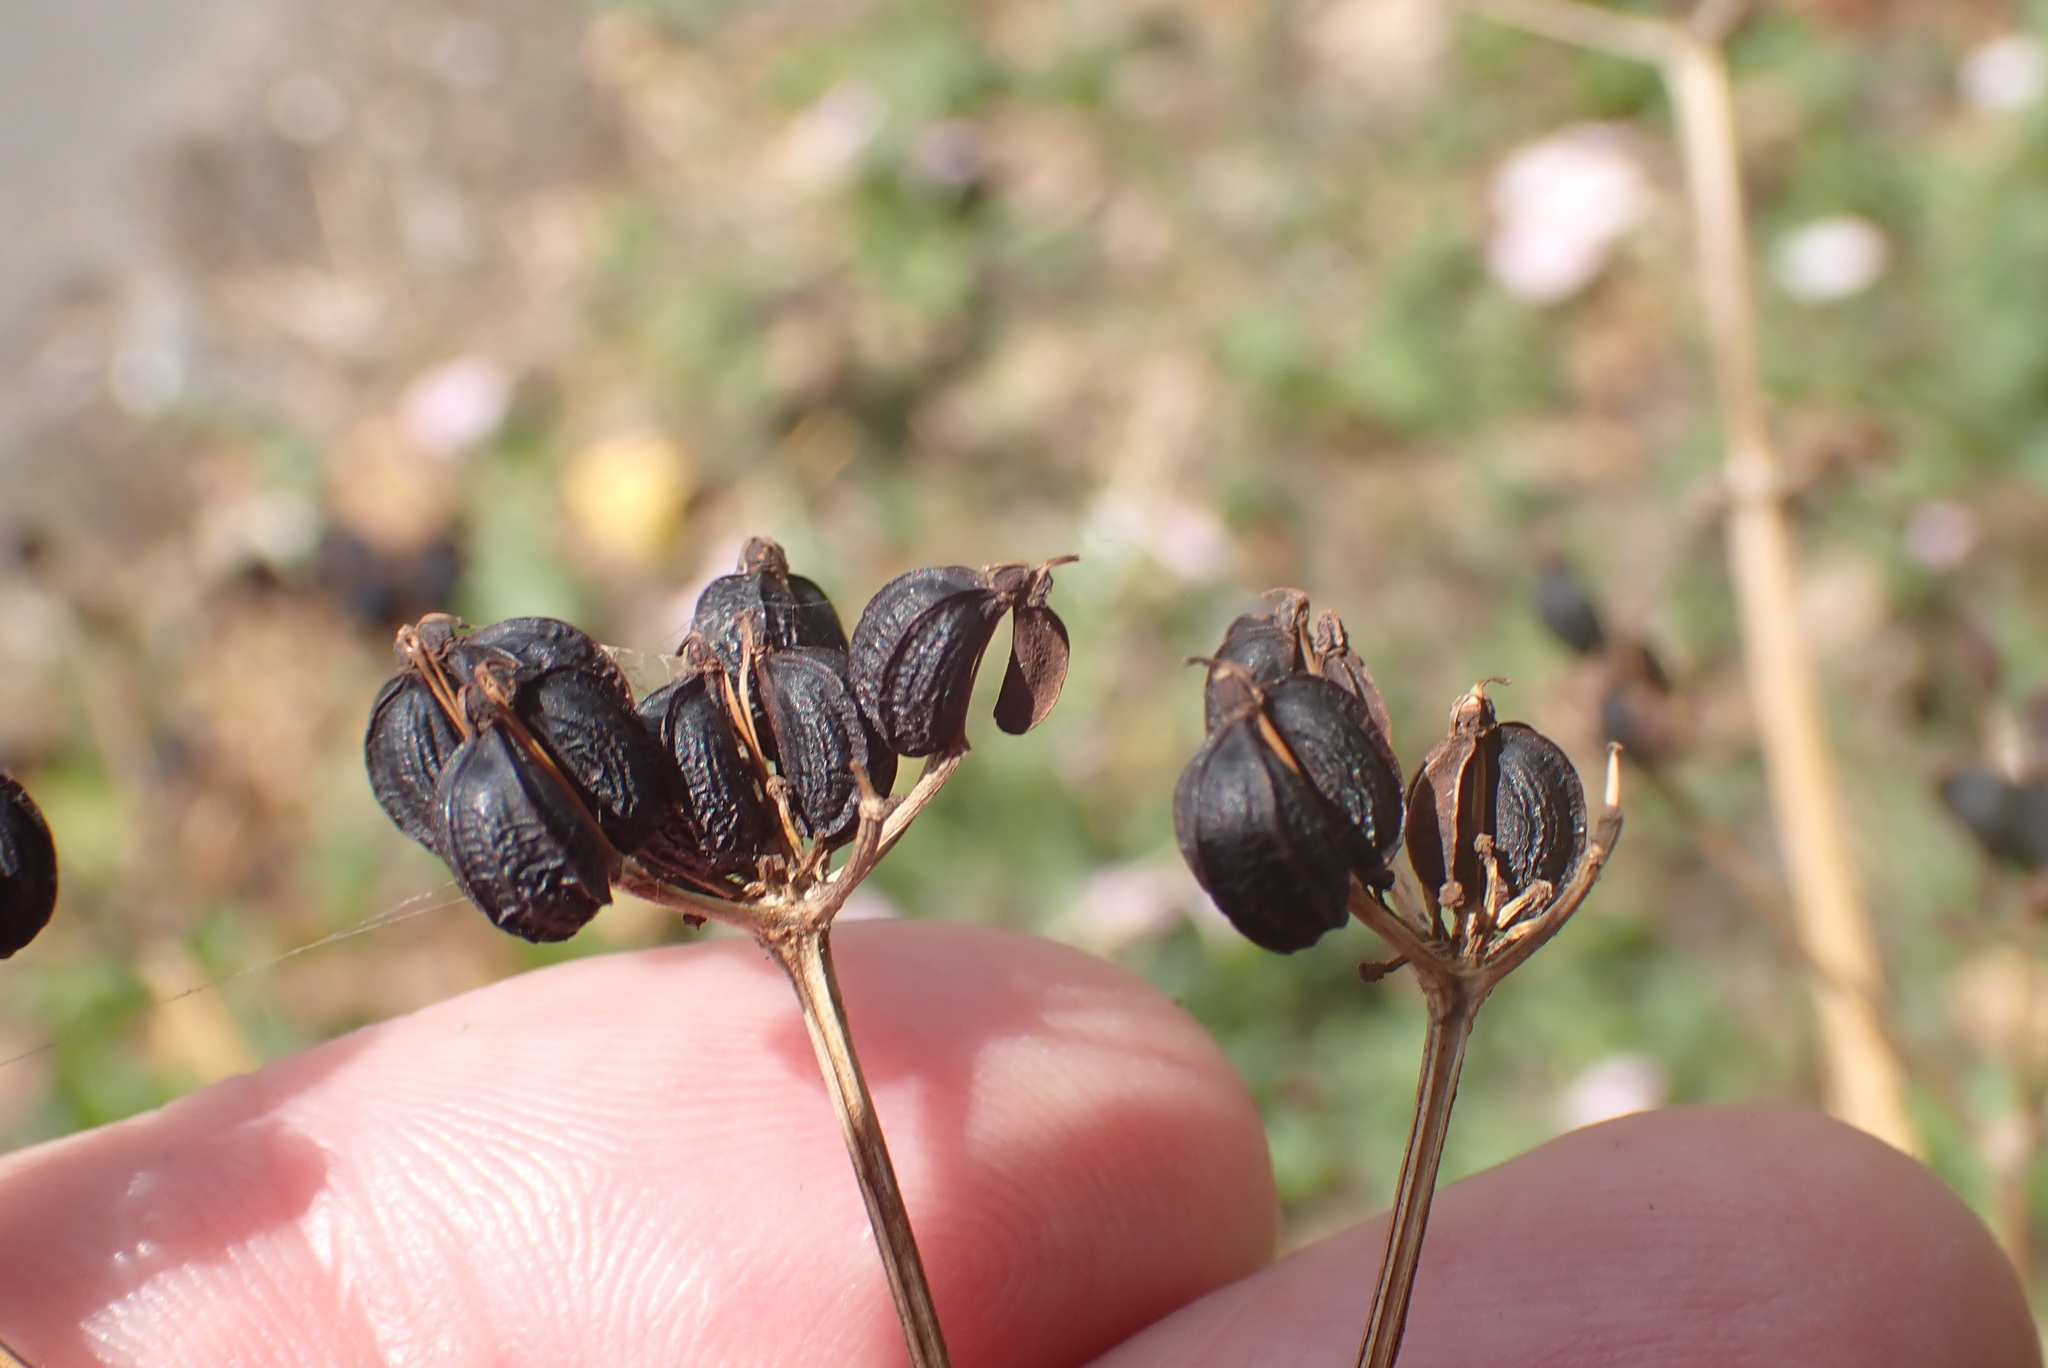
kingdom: Plantae
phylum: Tracheophyta
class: Magnoliopsida
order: Apiales
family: Apiaceae
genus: Smyrnium
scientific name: Smyrnium olusatrum
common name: Alexanders
